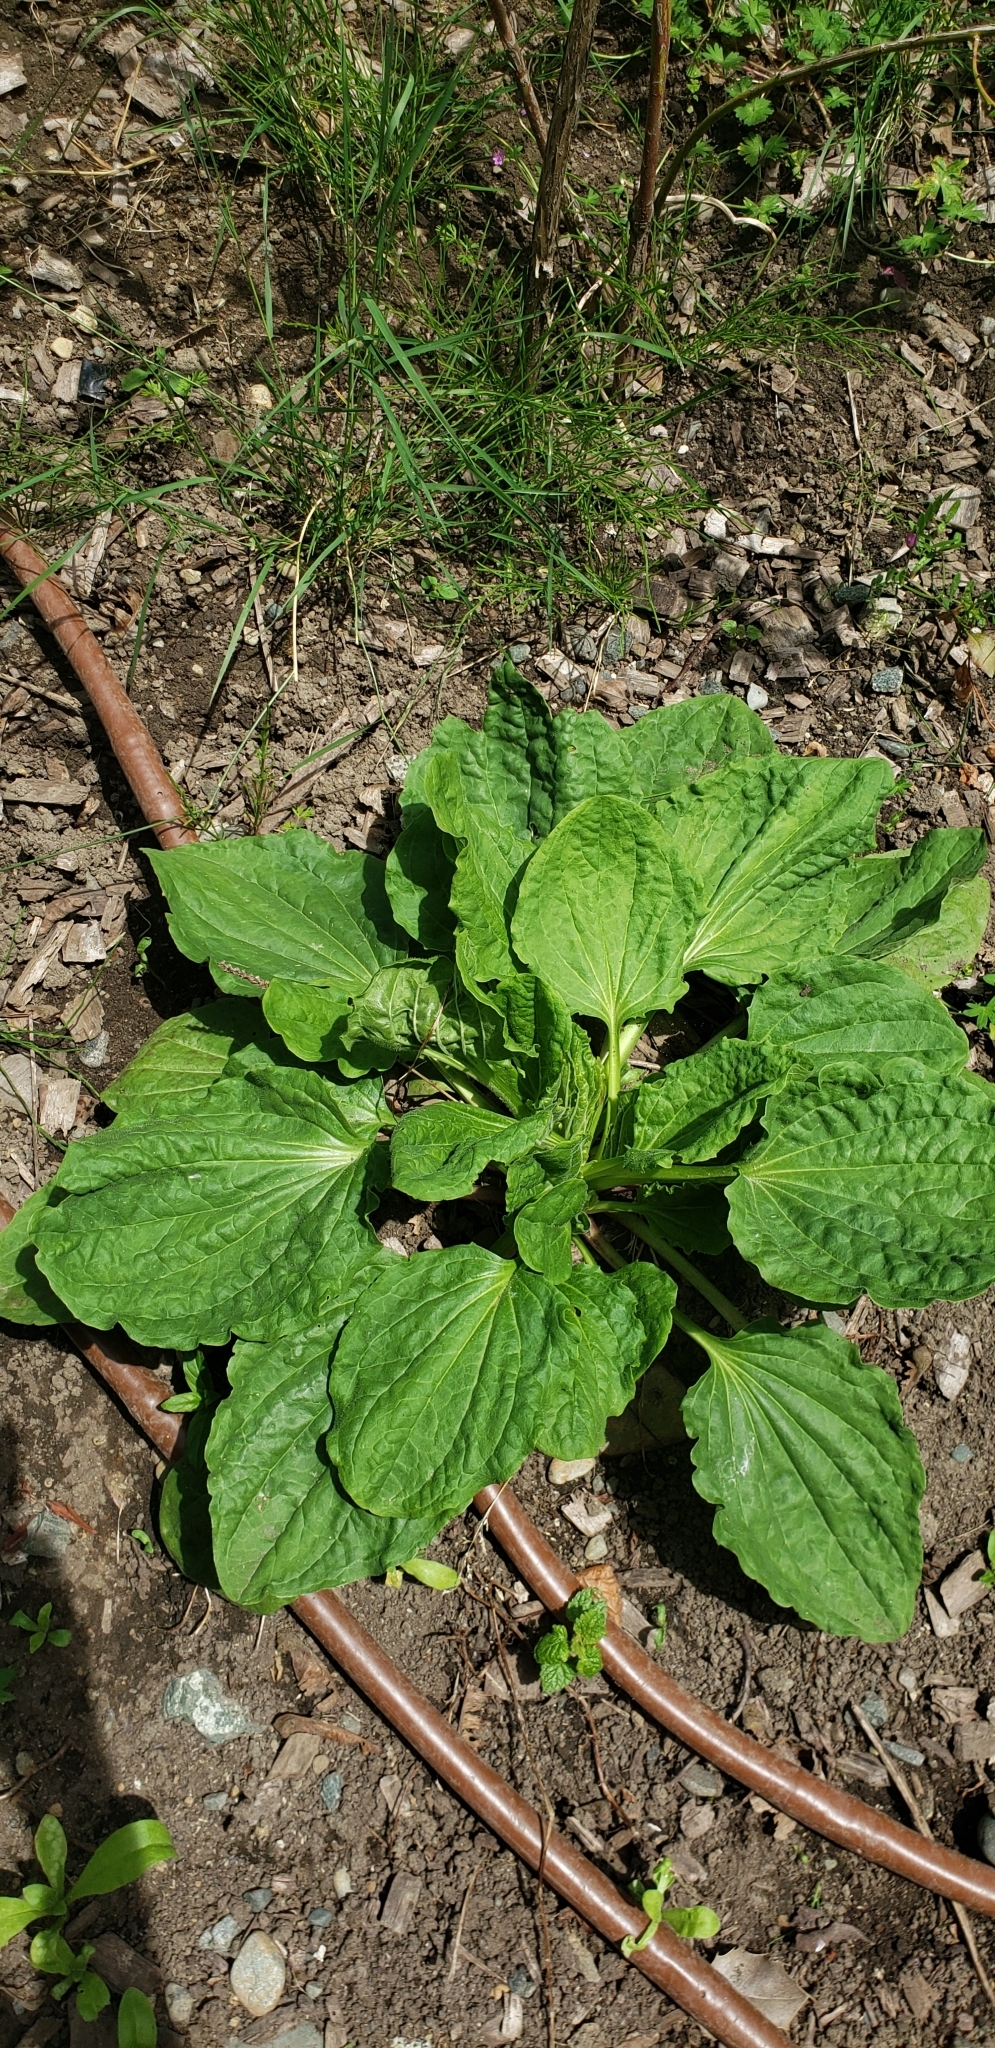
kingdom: Plantae
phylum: Tracheophyta
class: Magnoliopsida
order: Lamiales
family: Plantaginaceae
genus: Plantago
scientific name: Plantago major
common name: Common plantain
